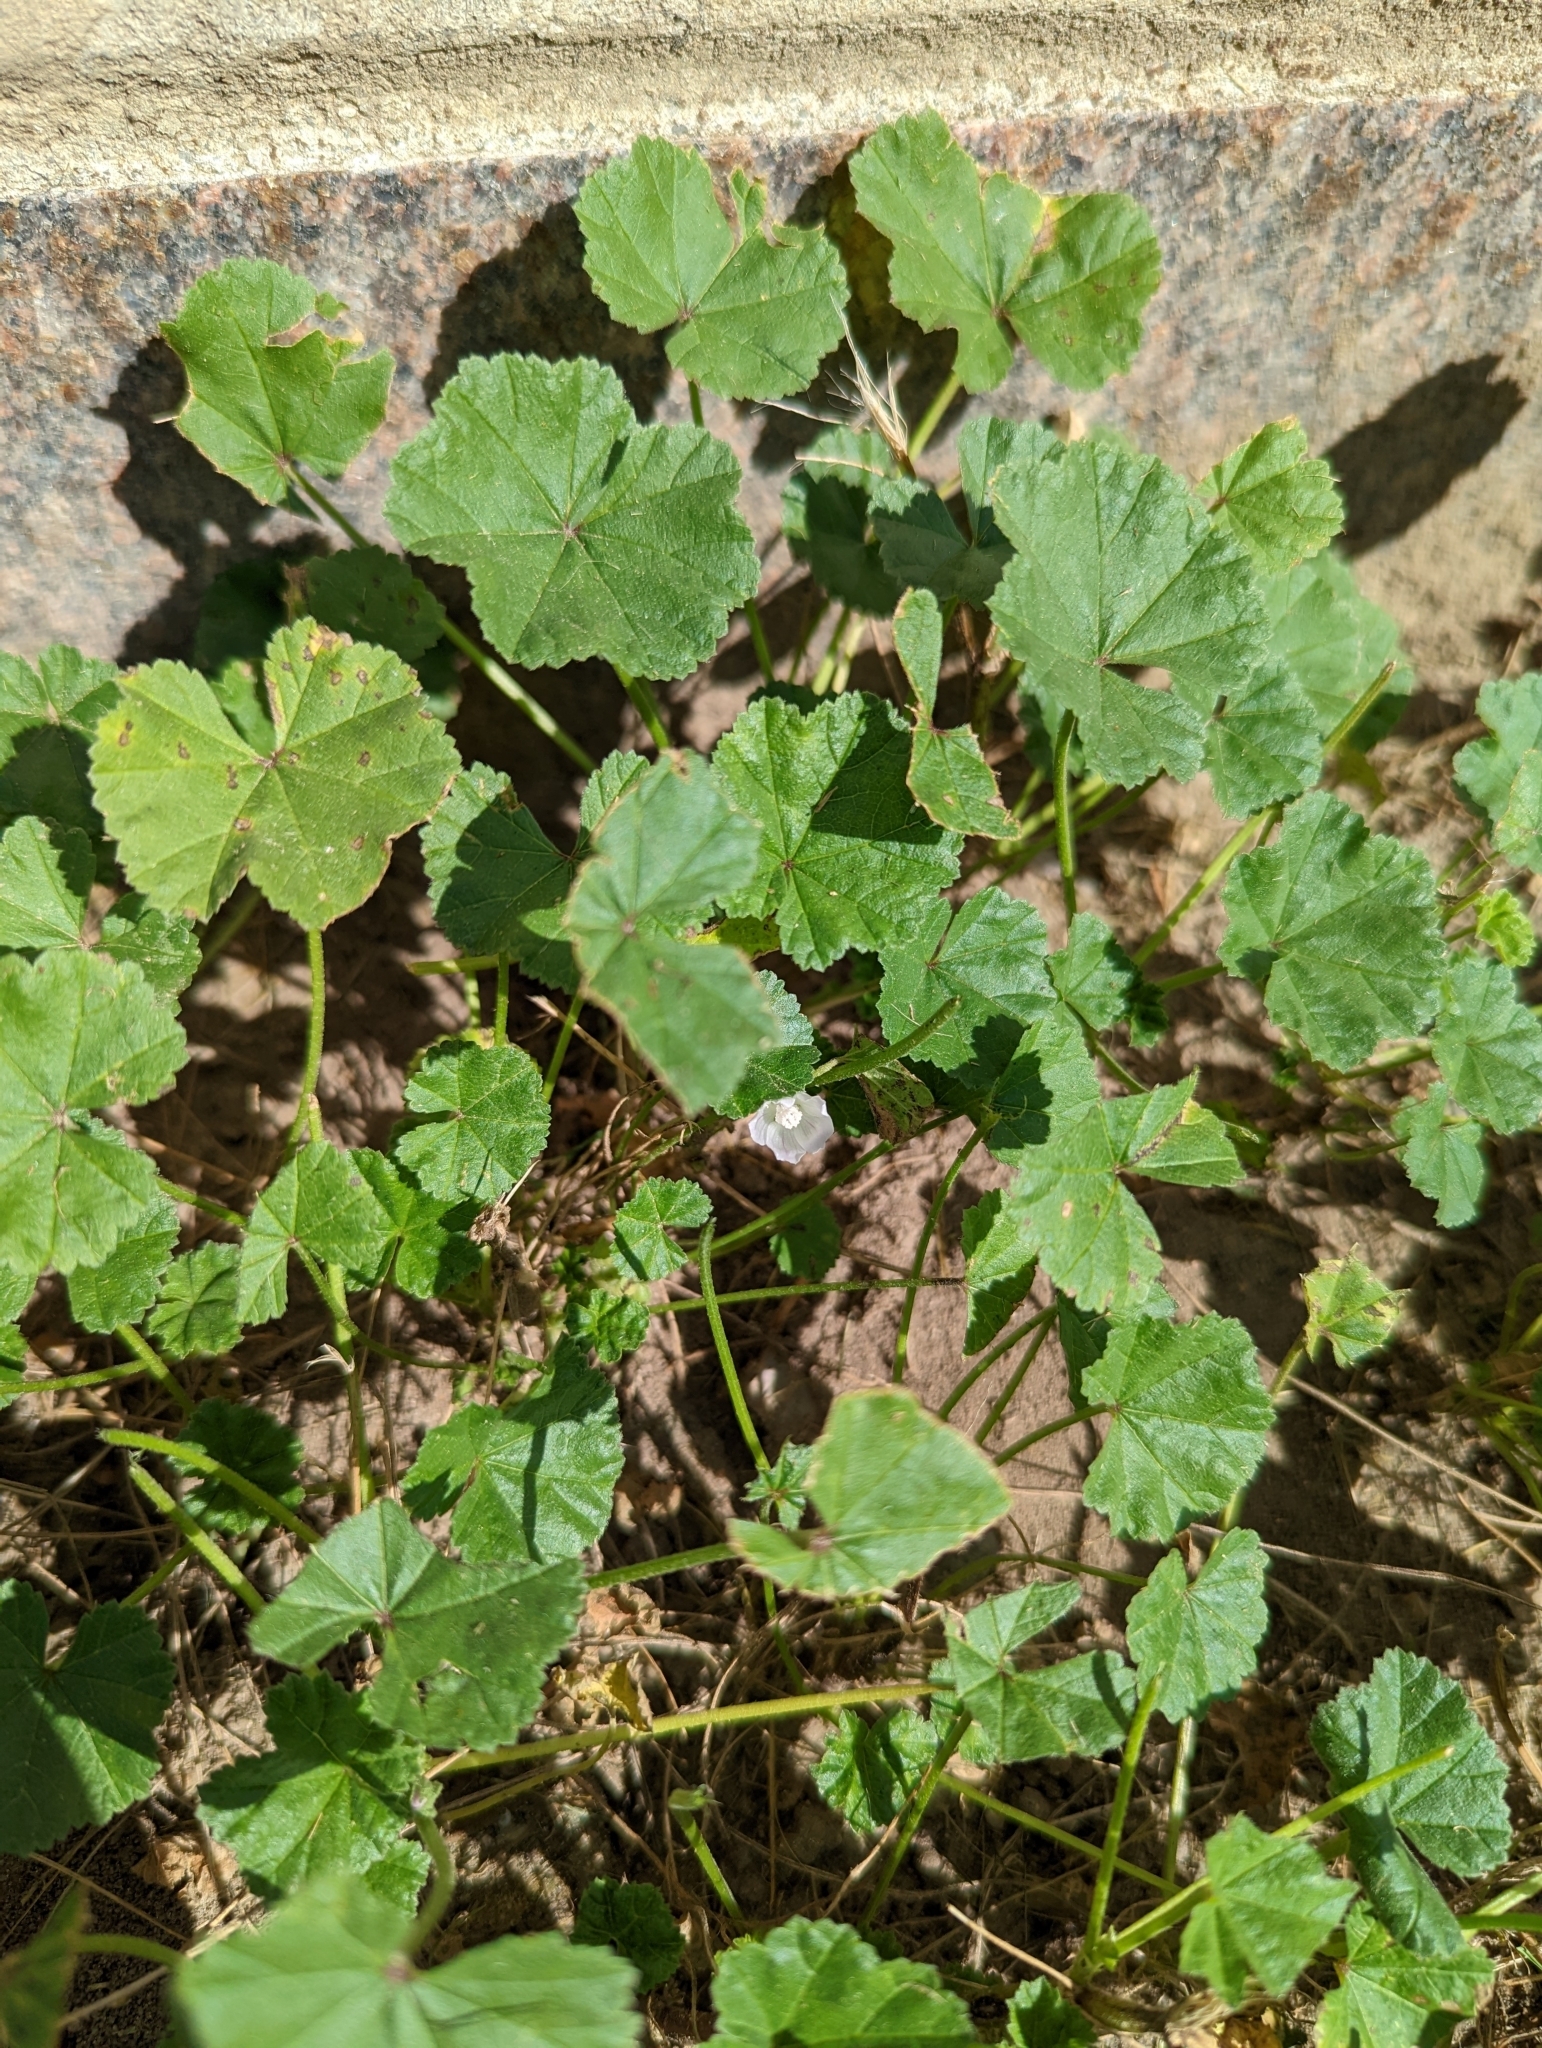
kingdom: Plantae
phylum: Tracheophyta
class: Magnoliopsida
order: Malvales
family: Malvaceae
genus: Malva
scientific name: Malva neglecta
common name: Common mallow
